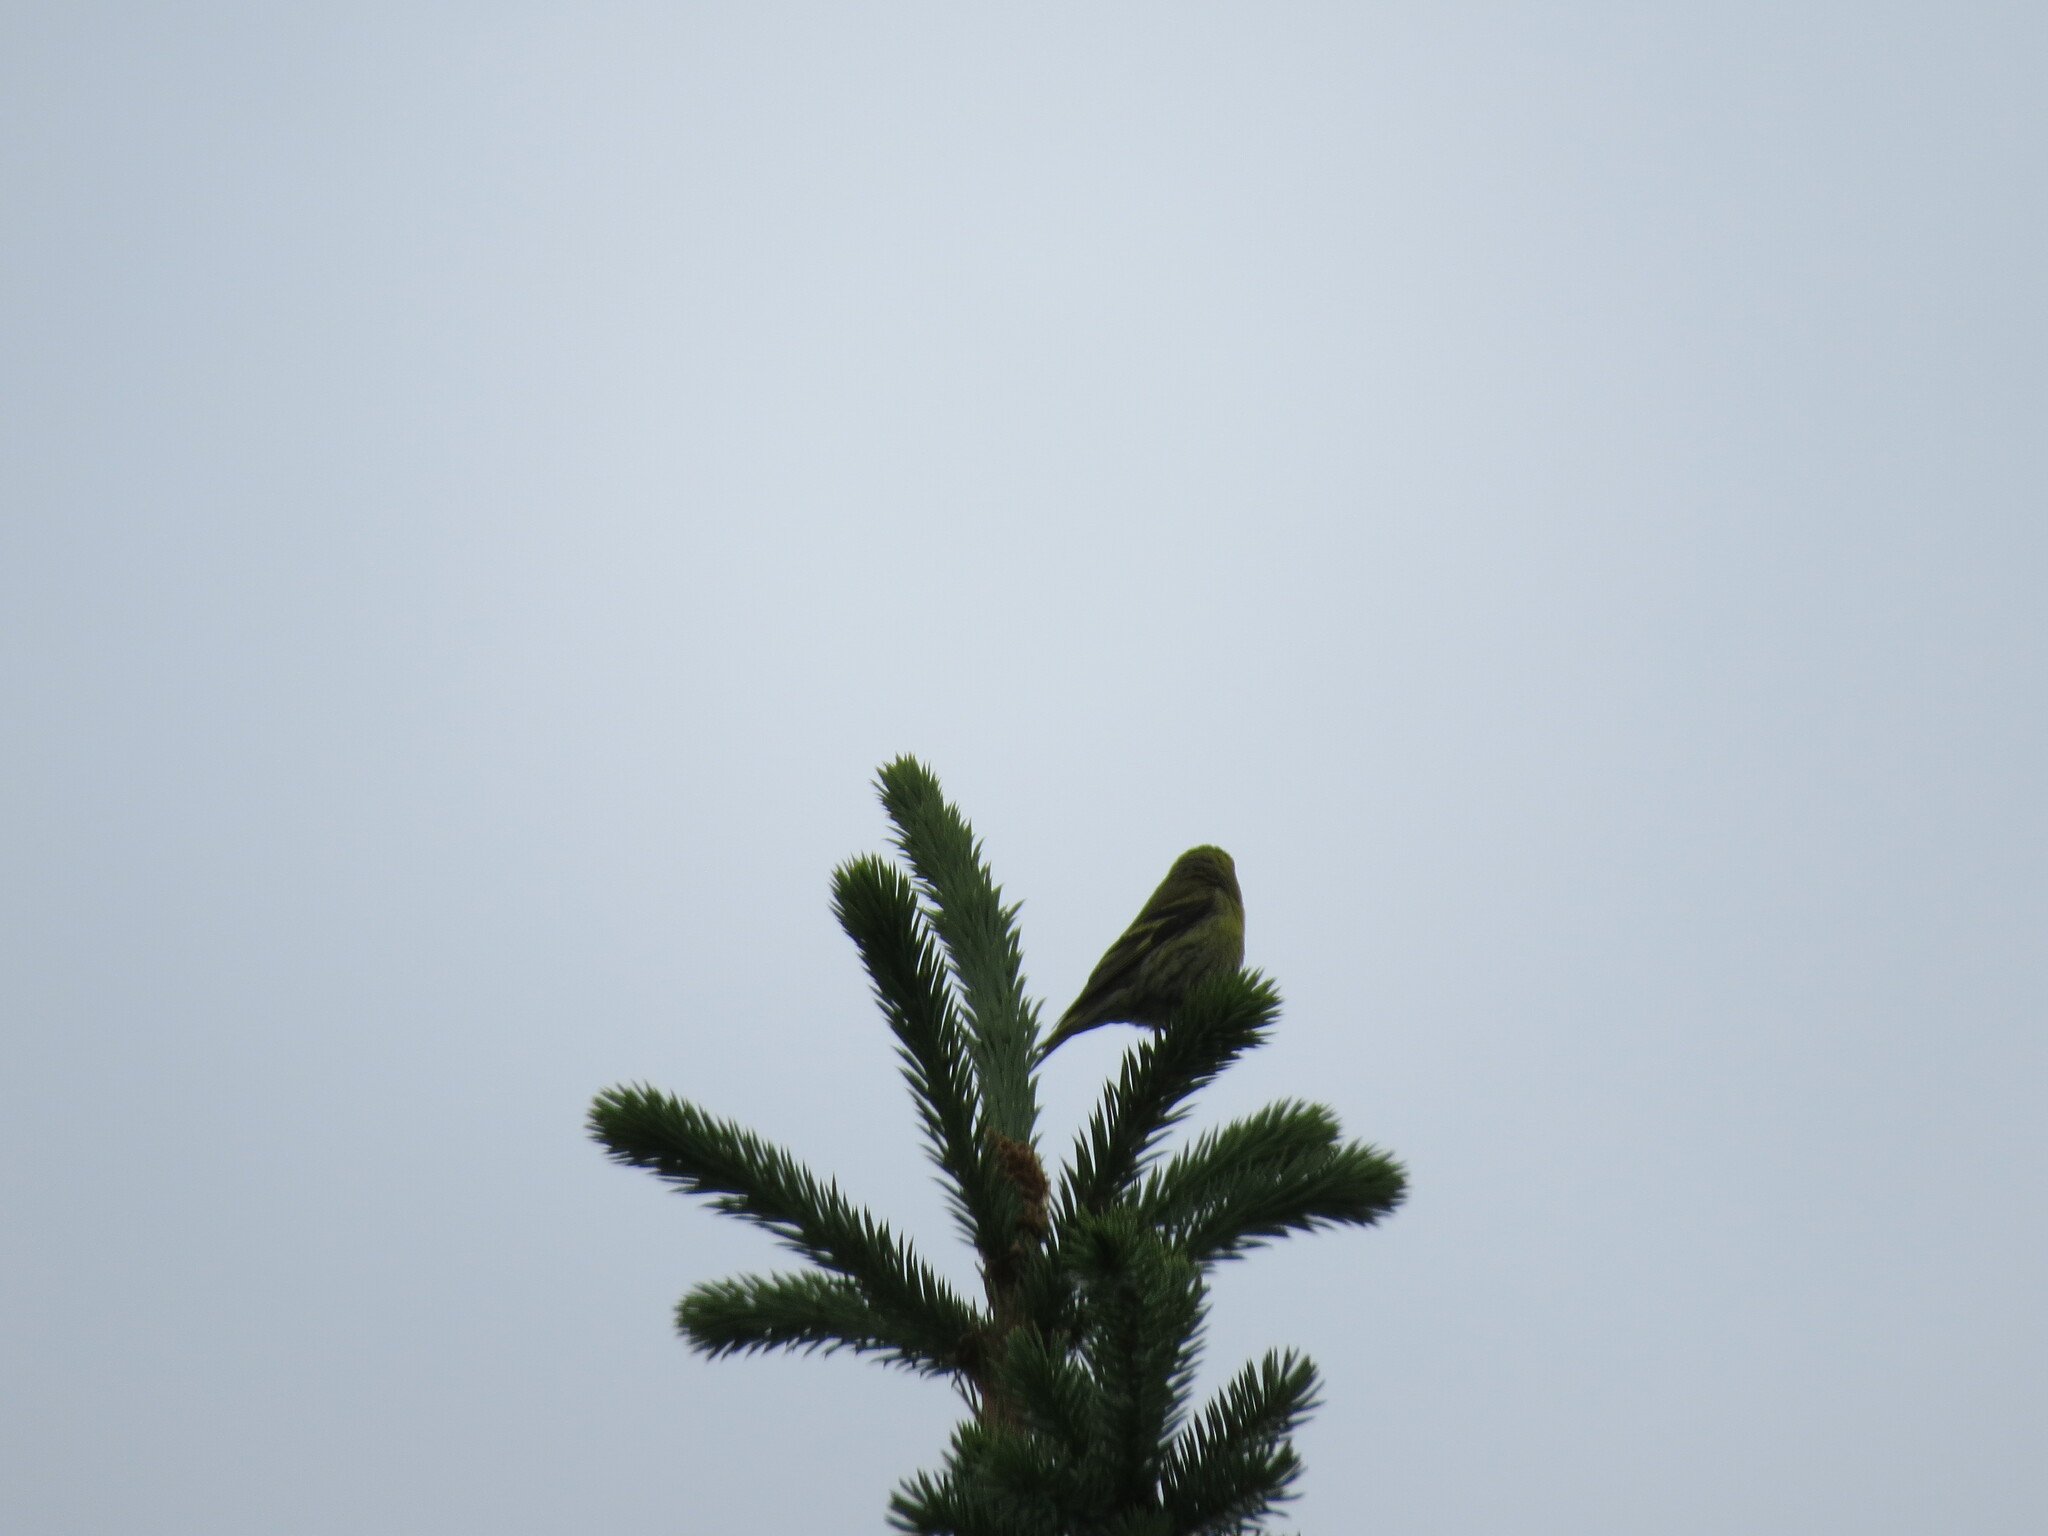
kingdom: Animalia
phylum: Chordata
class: Aves
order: Passeriformes
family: Fringillidae
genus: Spinus
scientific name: Spinus spinus
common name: Eurasian siskin
